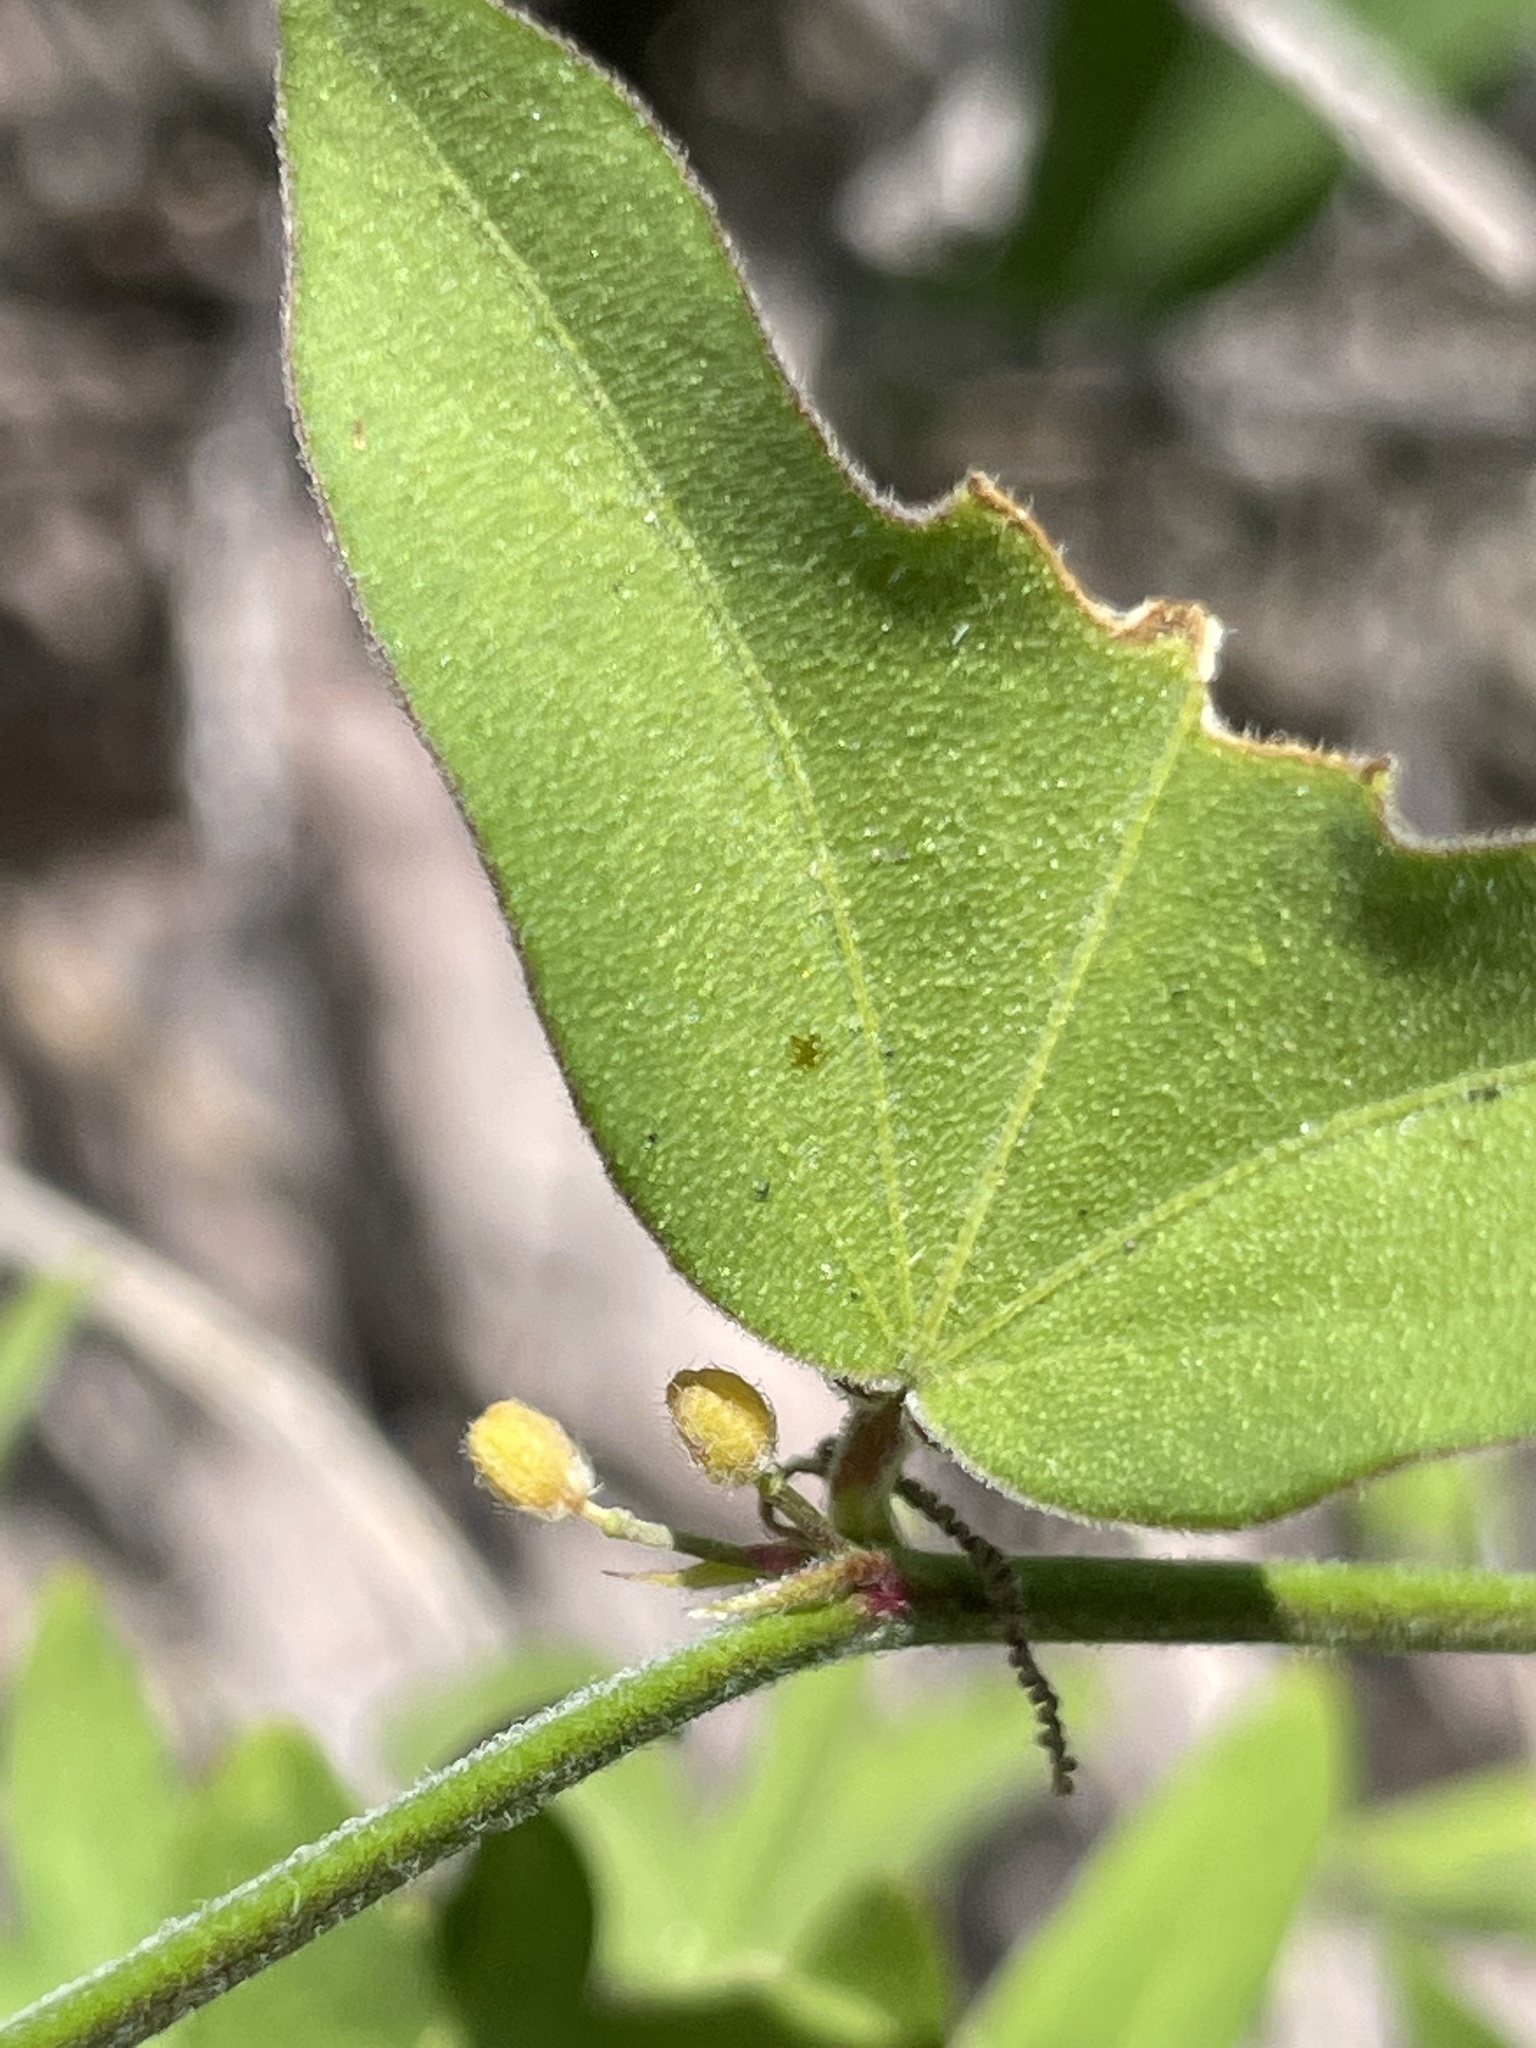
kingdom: Plantae
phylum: Tracheophyta
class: Magnoliopsida
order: Malpighiales
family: Passifloraceae
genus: Passiflora
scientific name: Passiflora suberosa
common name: Wild passionfruit
